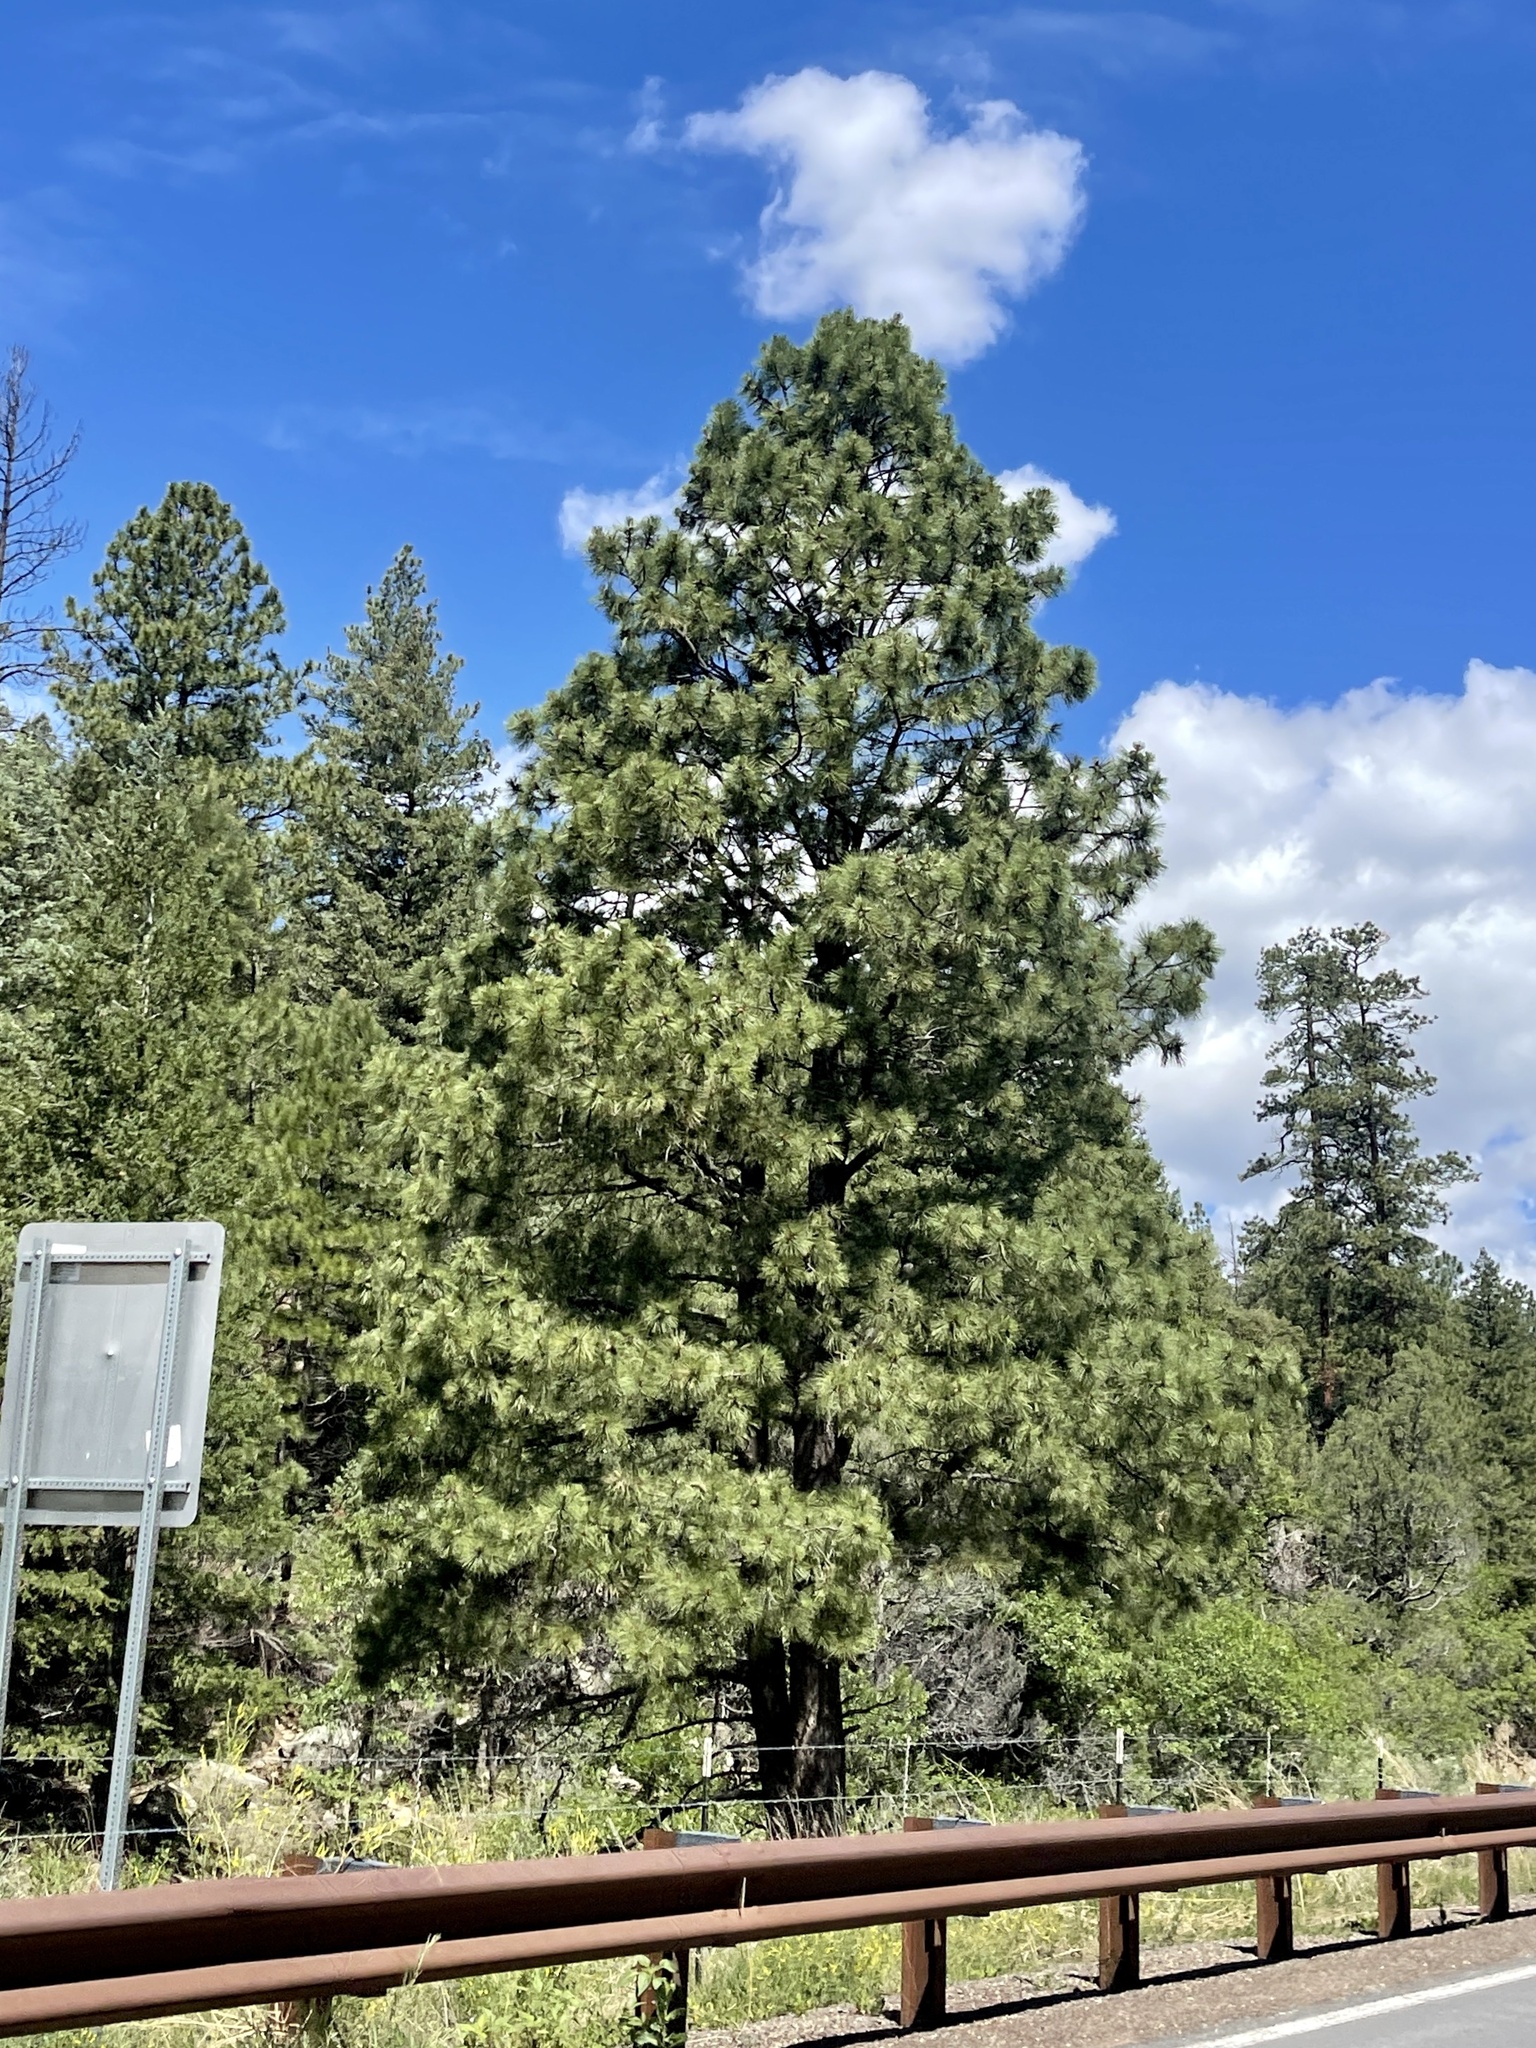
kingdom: Plantae
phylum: Tracheophyta
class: Pinopsida
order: Pinales
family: Pinaceae
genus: Pinus
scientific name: Pinus ponderosa
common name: Western yellow-pine
